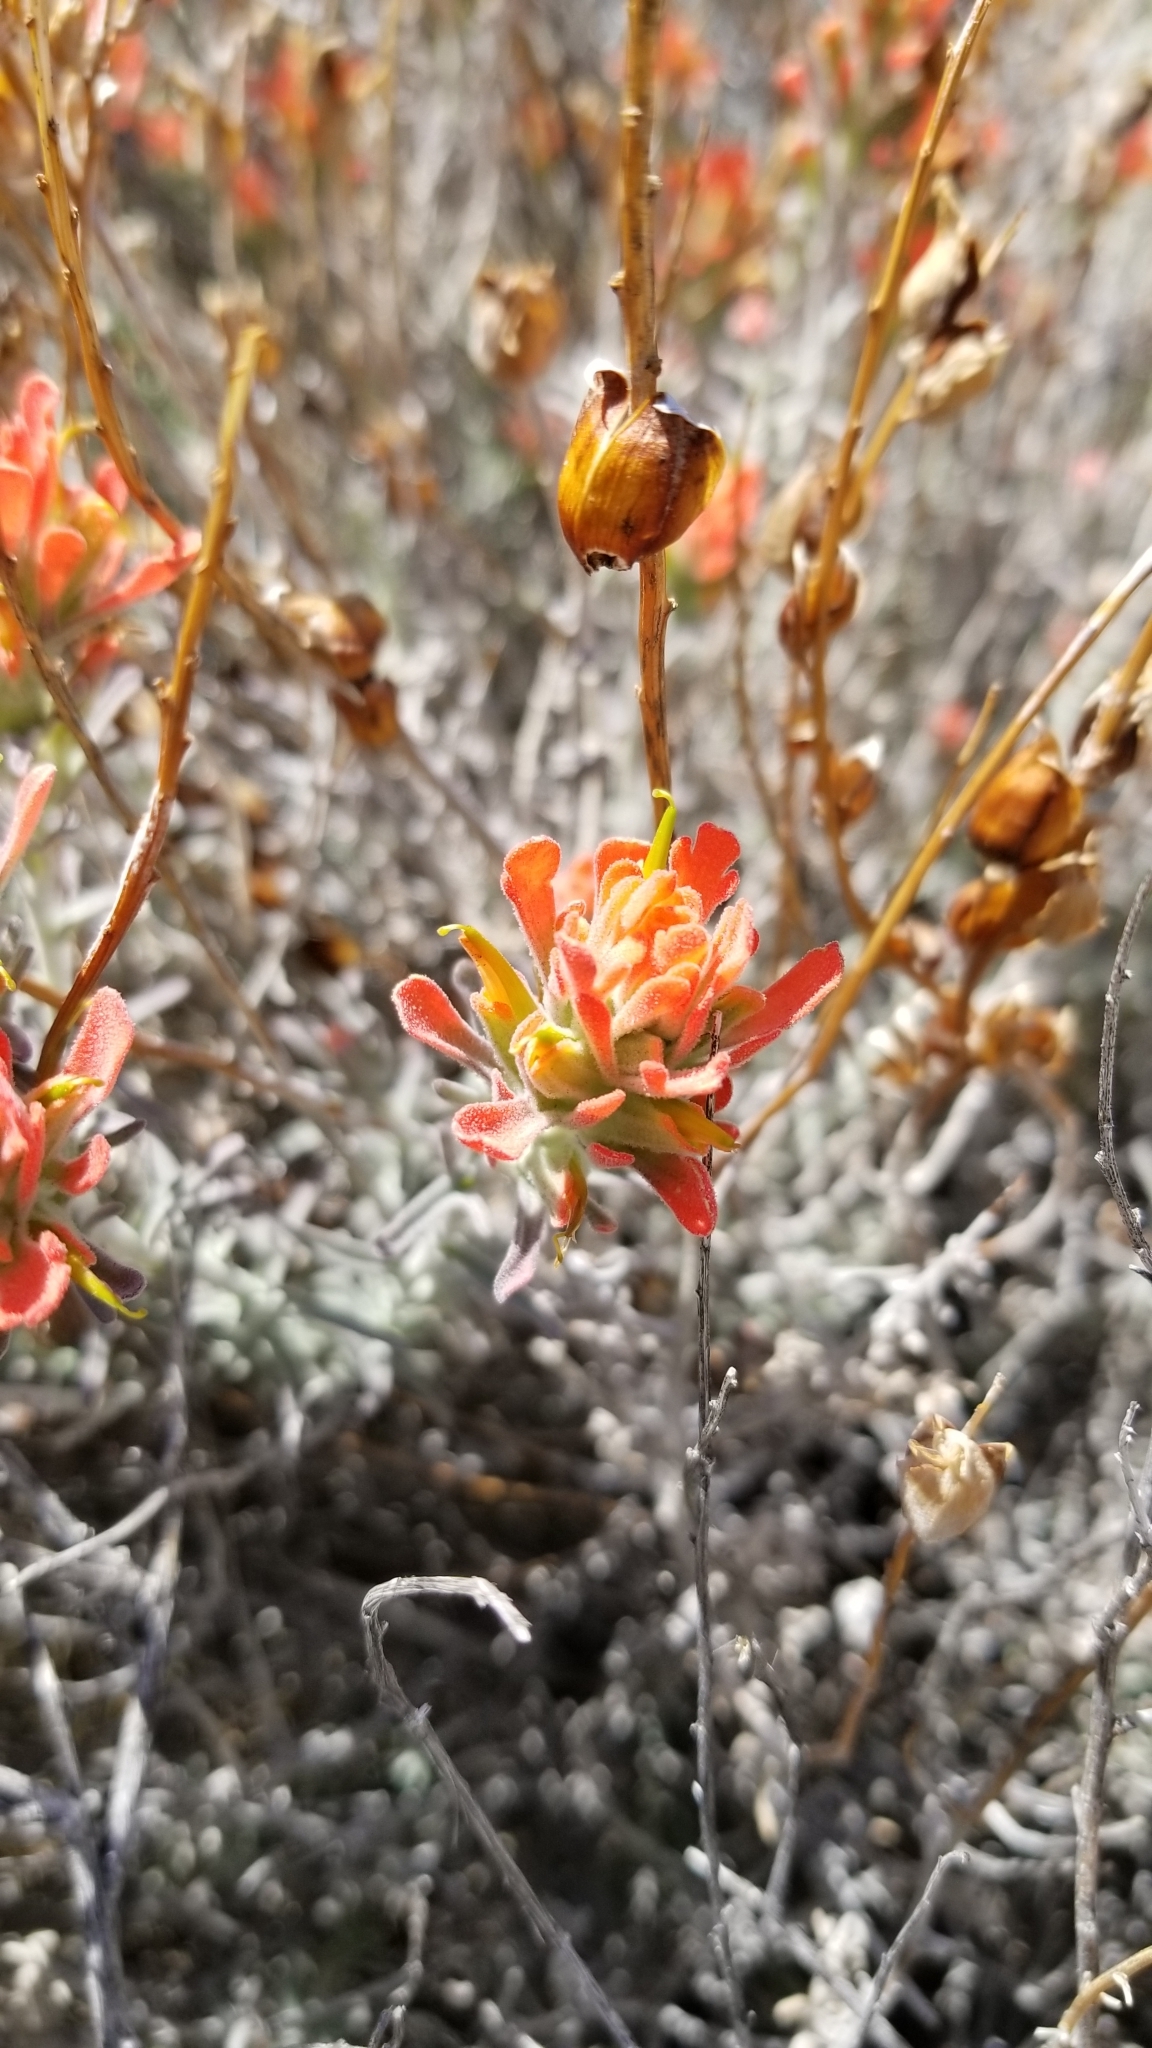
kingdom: Plantae
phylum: Tracheophyta
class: Magnoliopsida
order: Lamiales
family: Orobanchaceae
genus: Castilleja
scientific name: Castilleja foliolosa
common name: Woolly indian paintbrush
